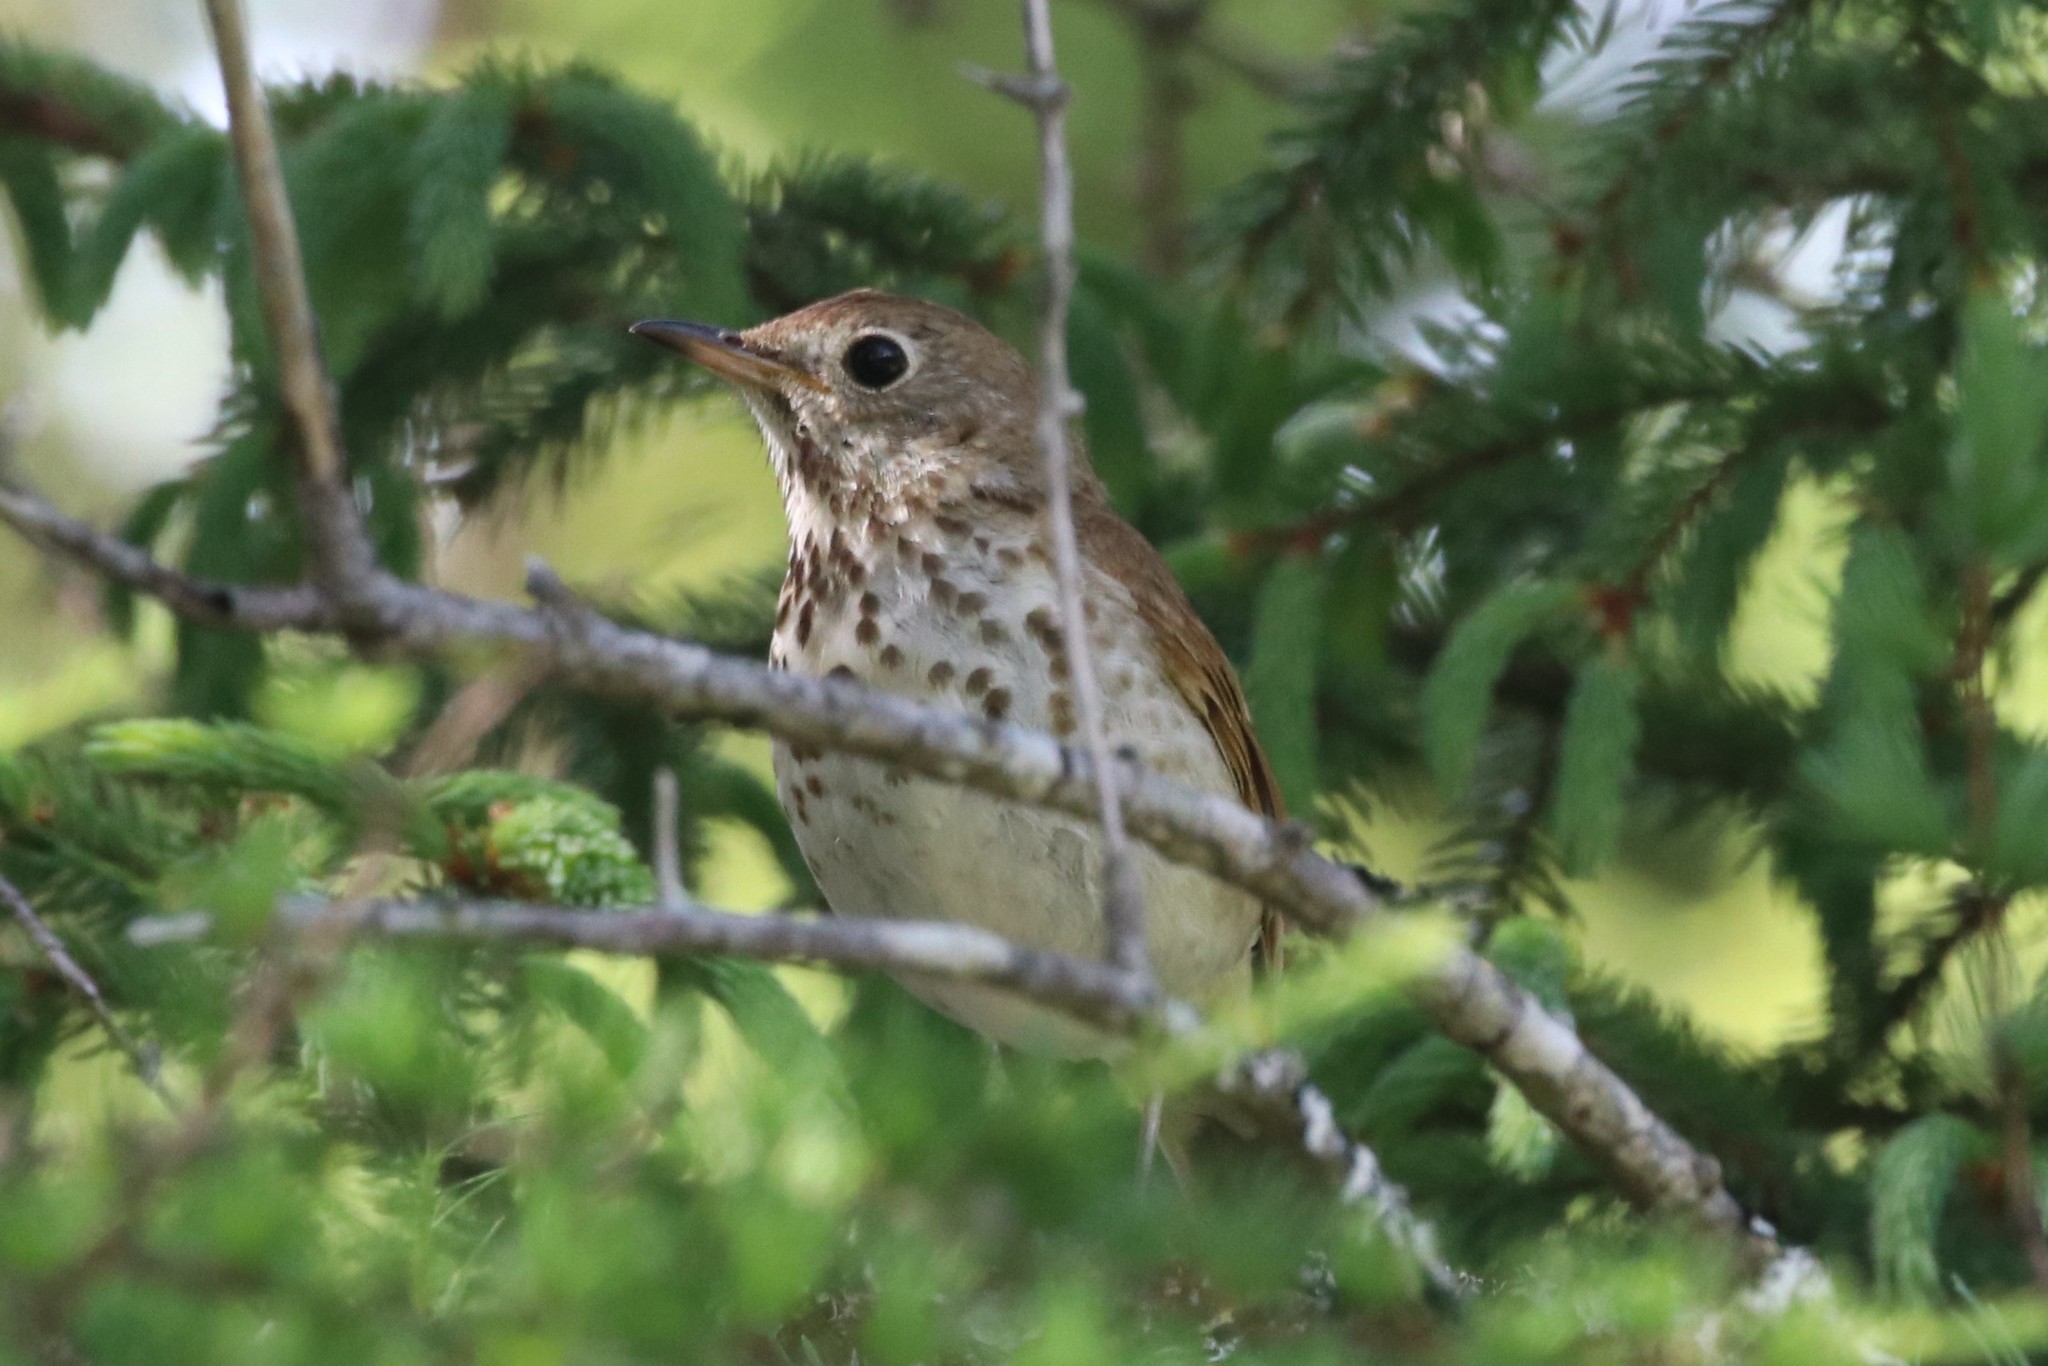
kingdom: Animalia
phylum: Chordata
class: Aves
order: Passeriformes
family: Turdidae
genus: Catharus
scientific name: Catharus guttatus
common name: Hermit thrush
